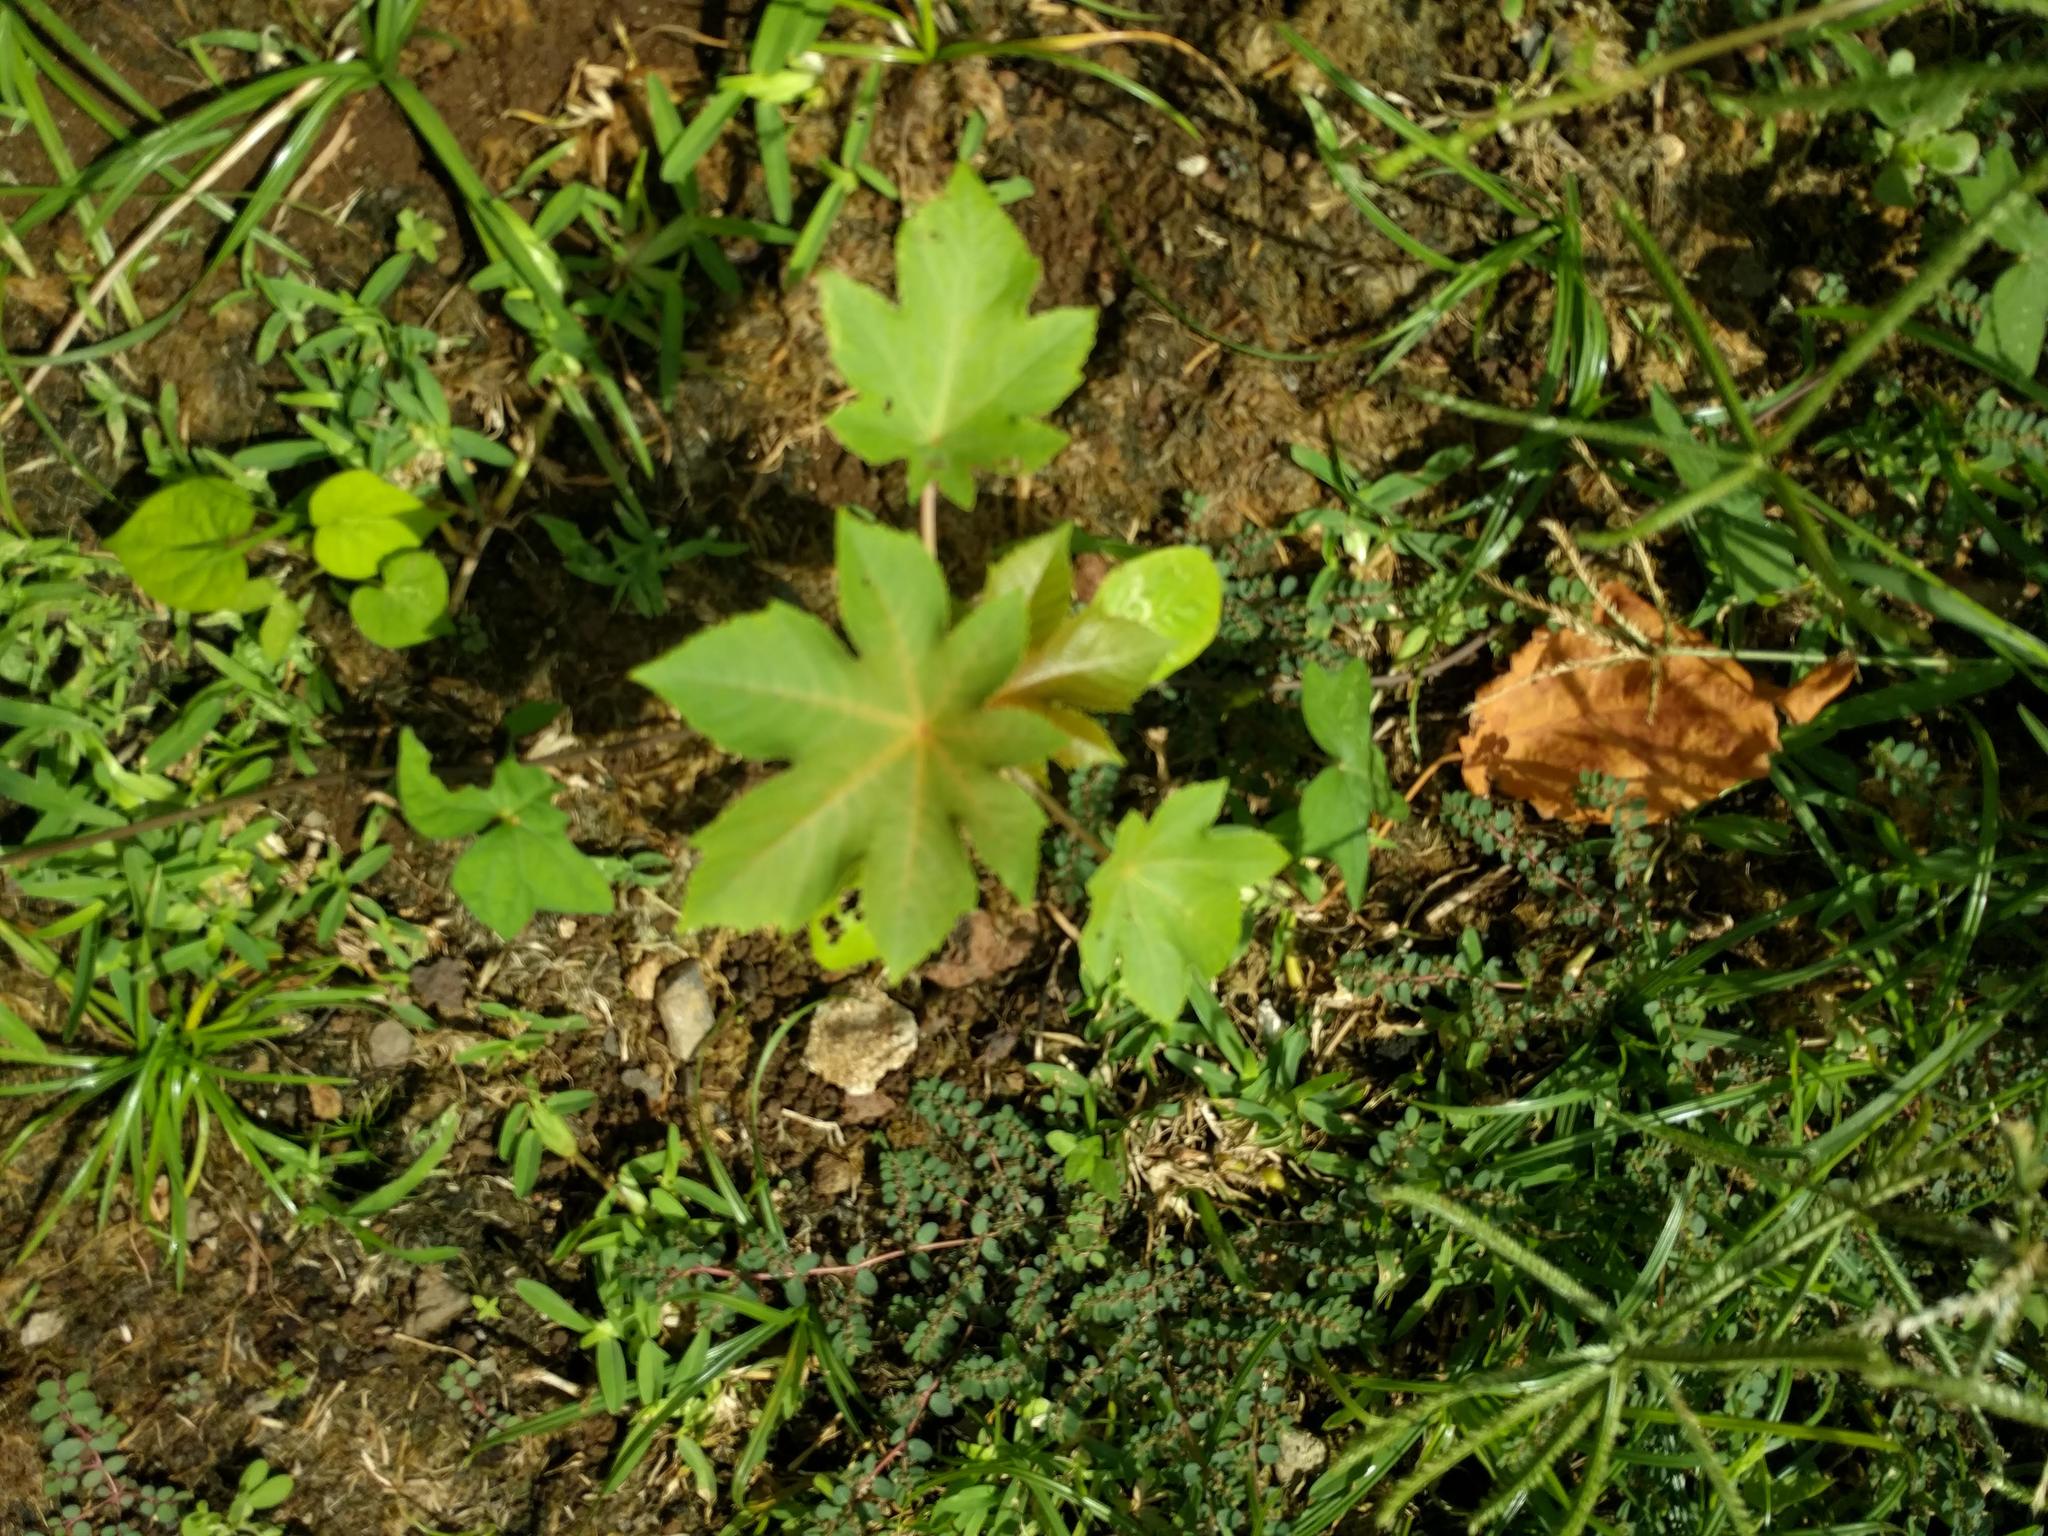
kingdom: Plantae
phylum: Tracheophyta
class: Magnoliopsida
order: Malpighiales
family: Euphorbiaceae
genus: Ricinus
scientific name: Ricinus communis
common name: Castor-oil-plant
